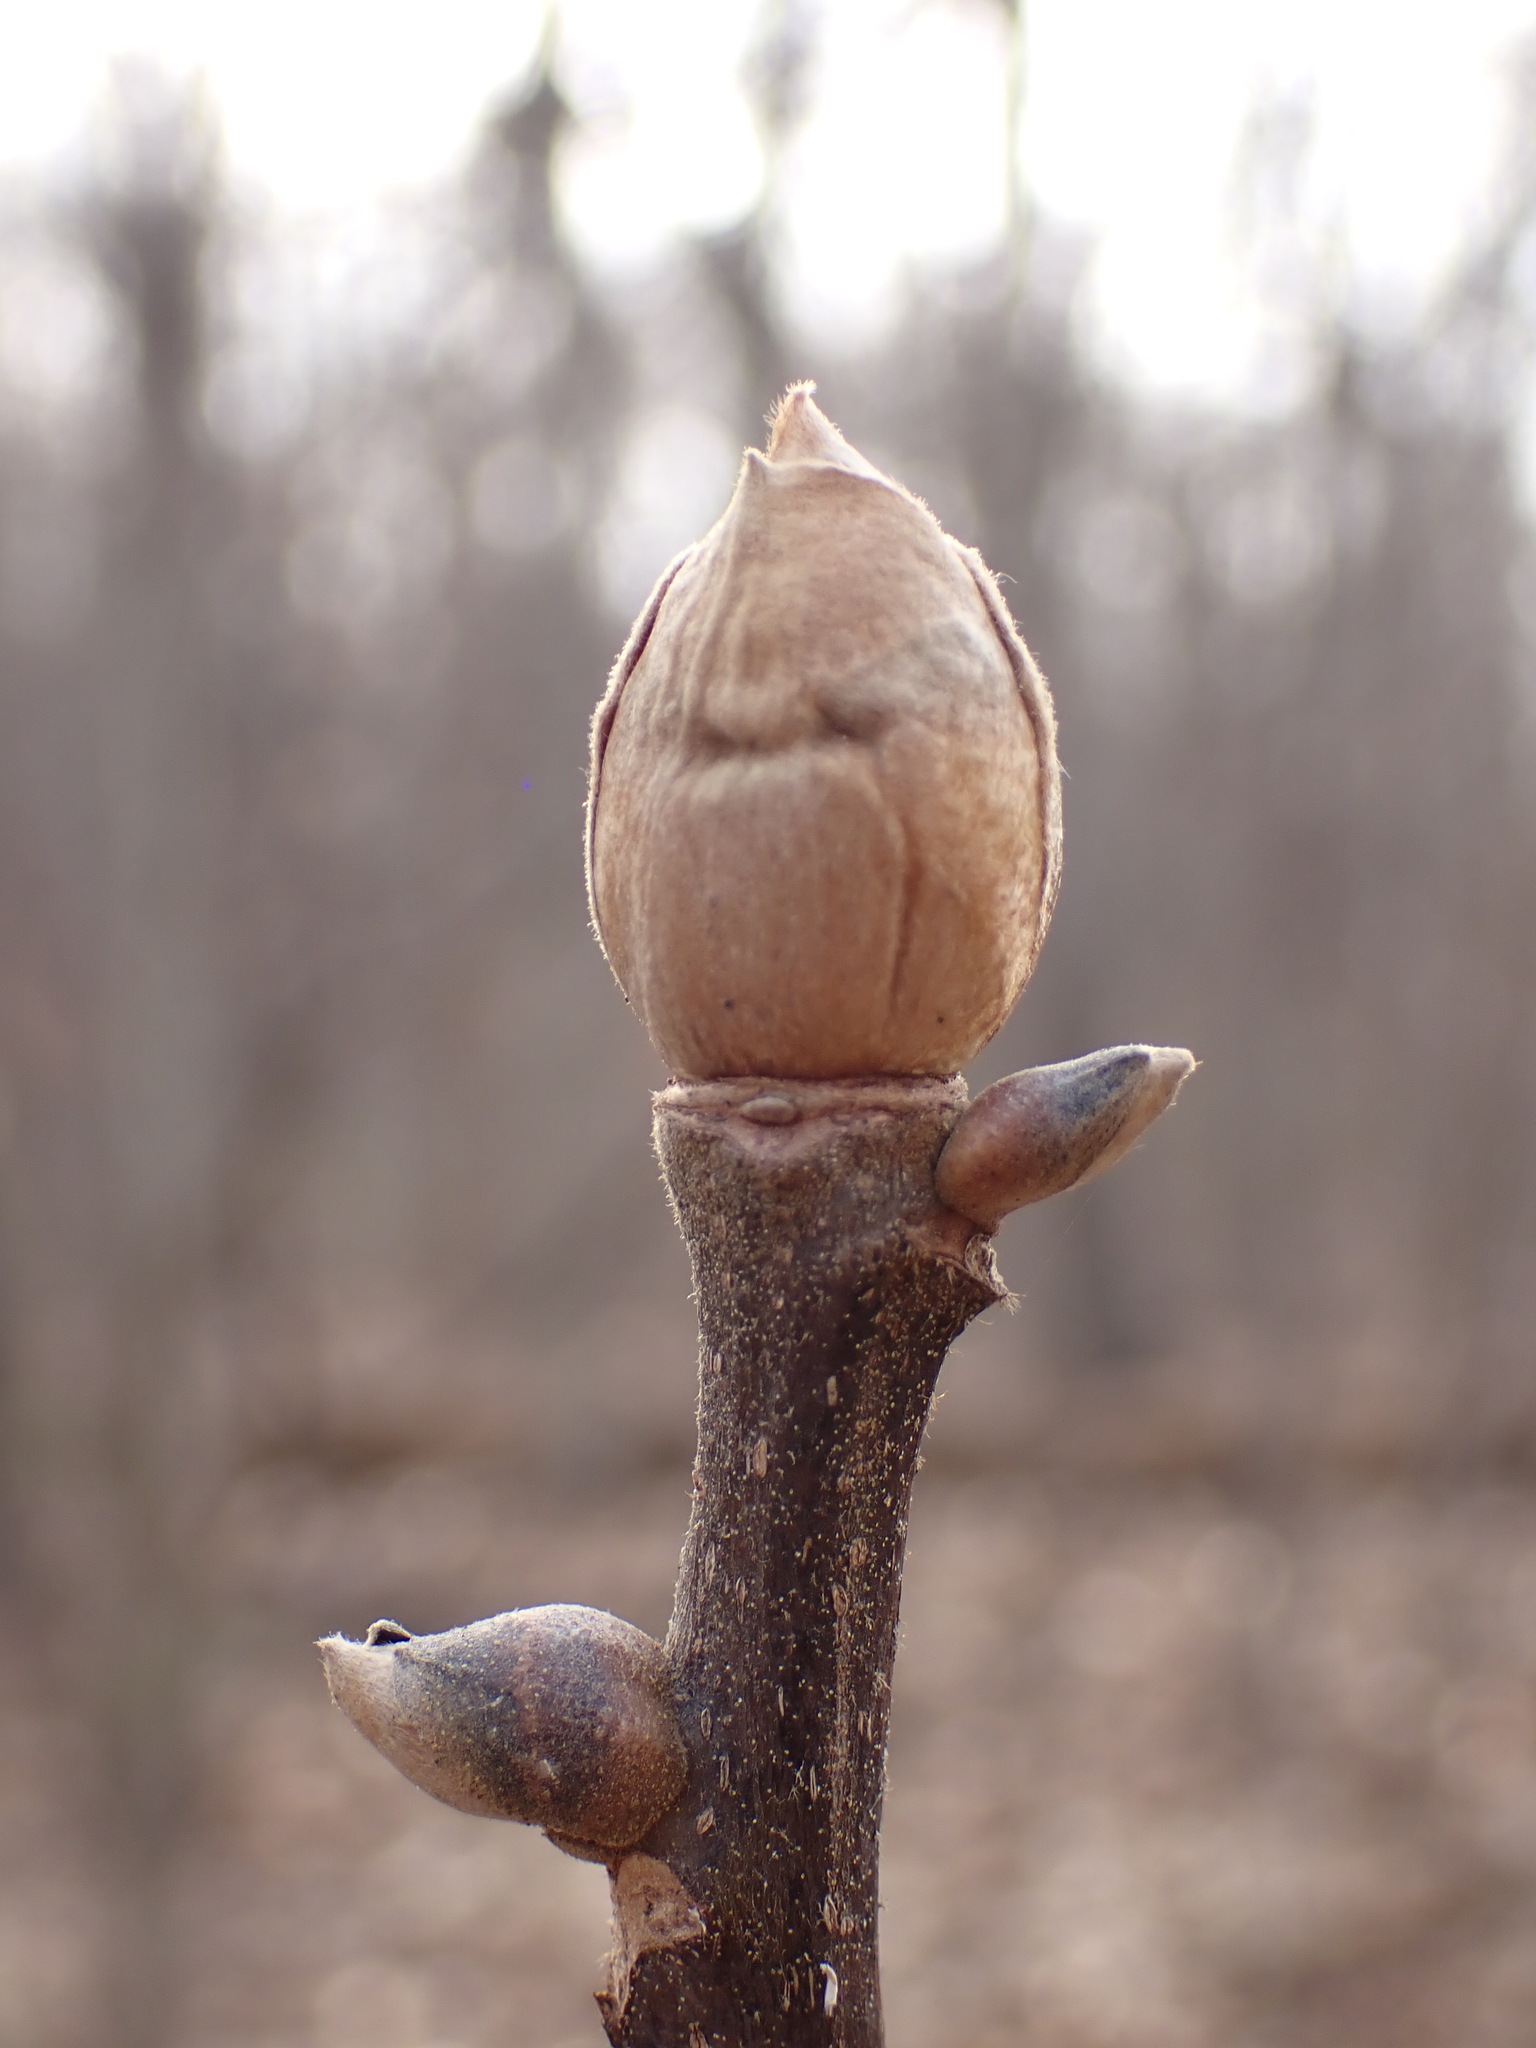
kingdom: Plantae
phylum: Tracheophyta
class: Magnoliopsida
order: Fagales
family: Juglandaceae
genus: Carya
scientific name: Carya alba
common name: Mockernut hickory
